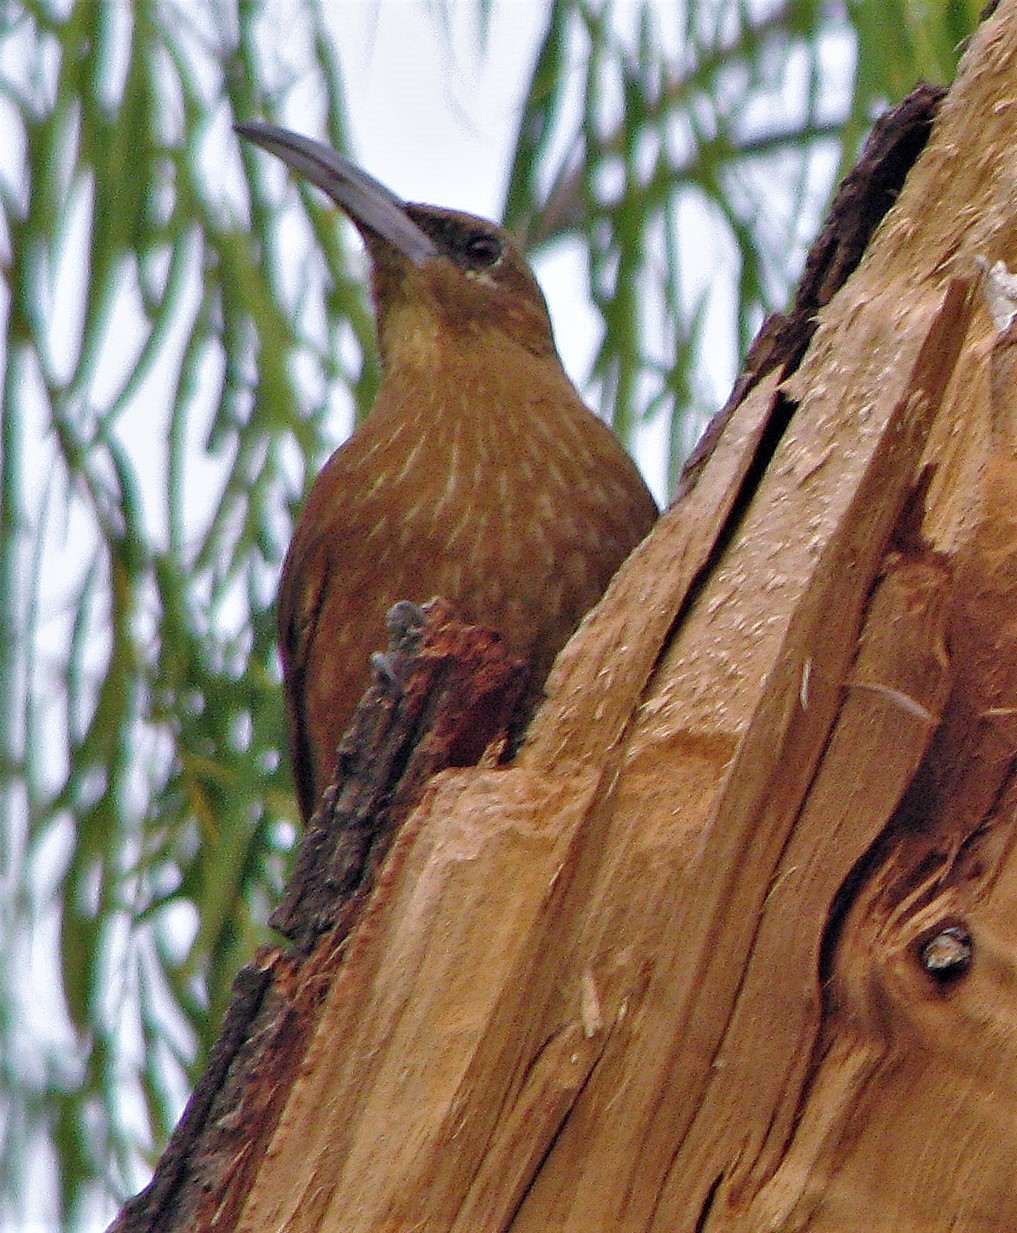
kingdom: Animalia
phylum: Chordata
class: Aves
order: Passeriformes
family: Furnariidae
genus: Xiphocolaptes
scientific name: Xiphocolaptes major
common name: Great rufous woodcreeper
